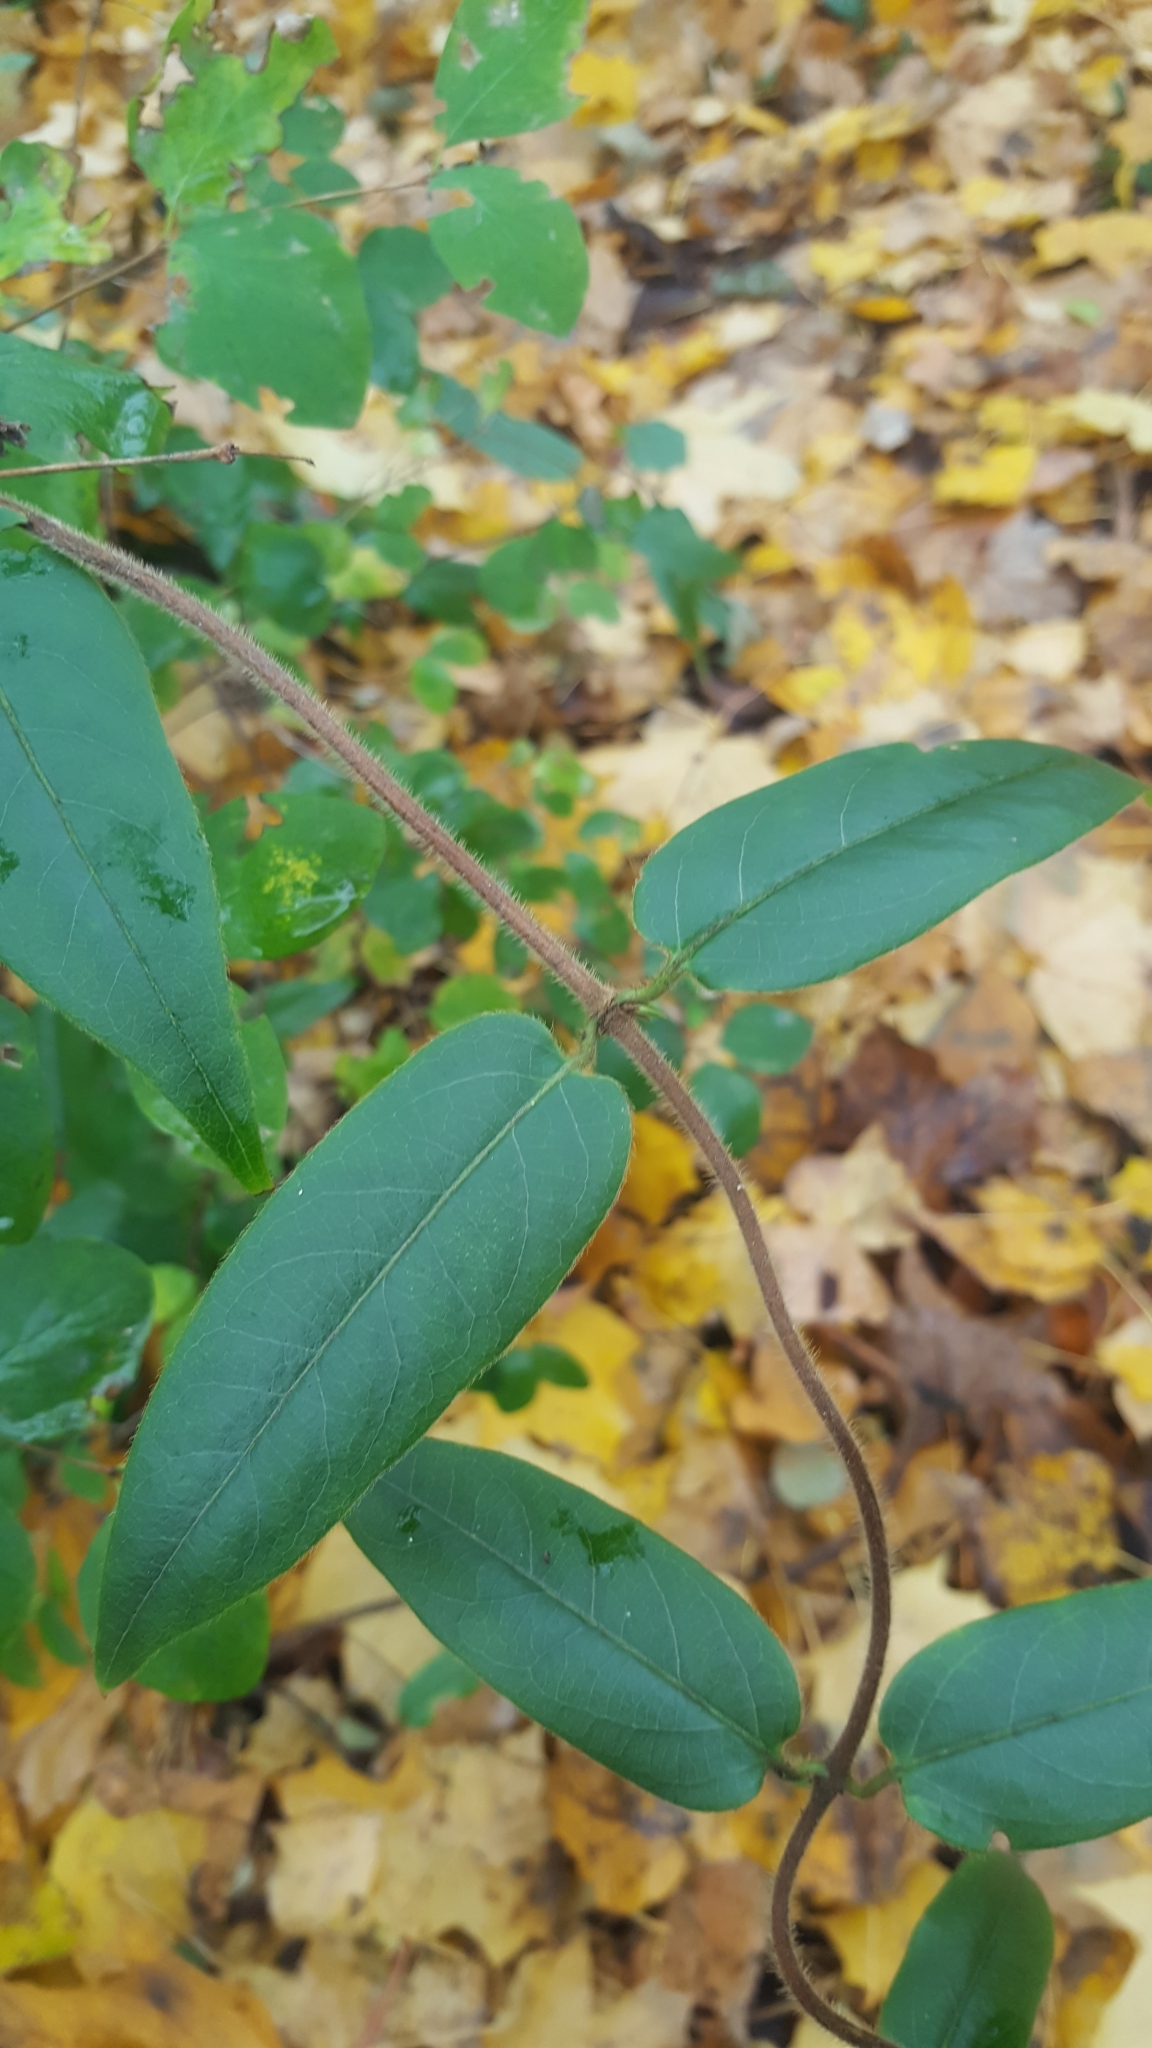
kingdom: Plantae
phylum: Tracheophyta
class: Magnoliopsida
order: Dipsacales
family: Caprifoliaceae
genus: Lonicera
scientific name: Lonicera acuminata
